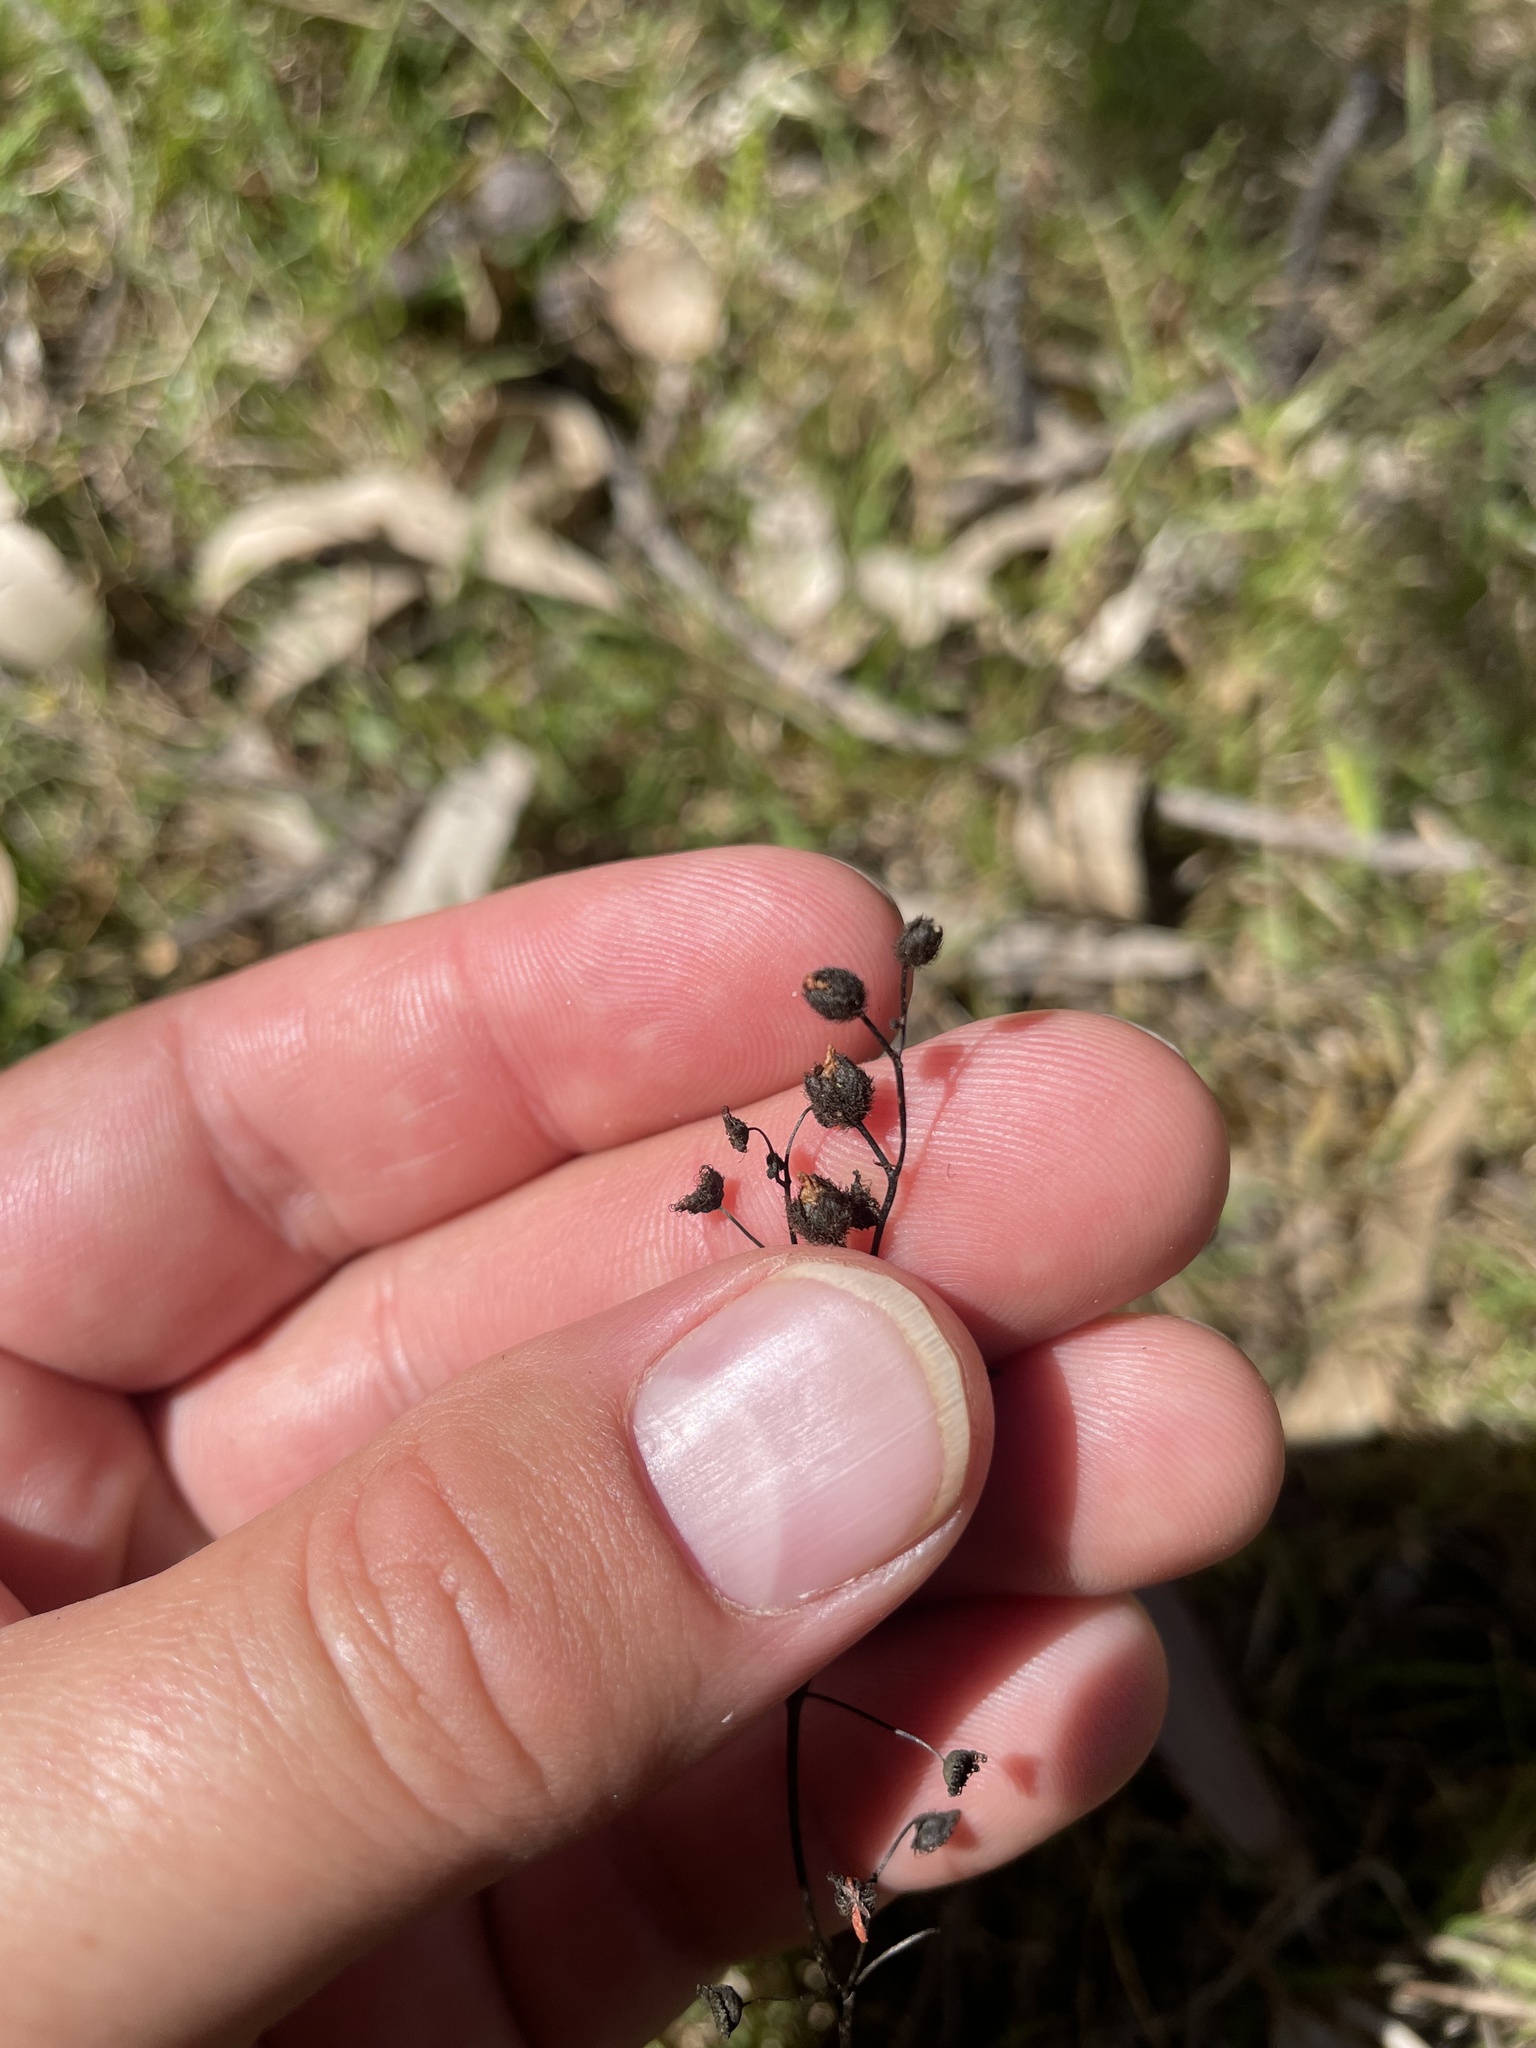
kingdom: Plantae
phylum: Tracheophyta
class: Magnoliopsida
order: Caryophyllales
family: Droseraceae
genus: Drosera
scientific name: Drosera gunniana
